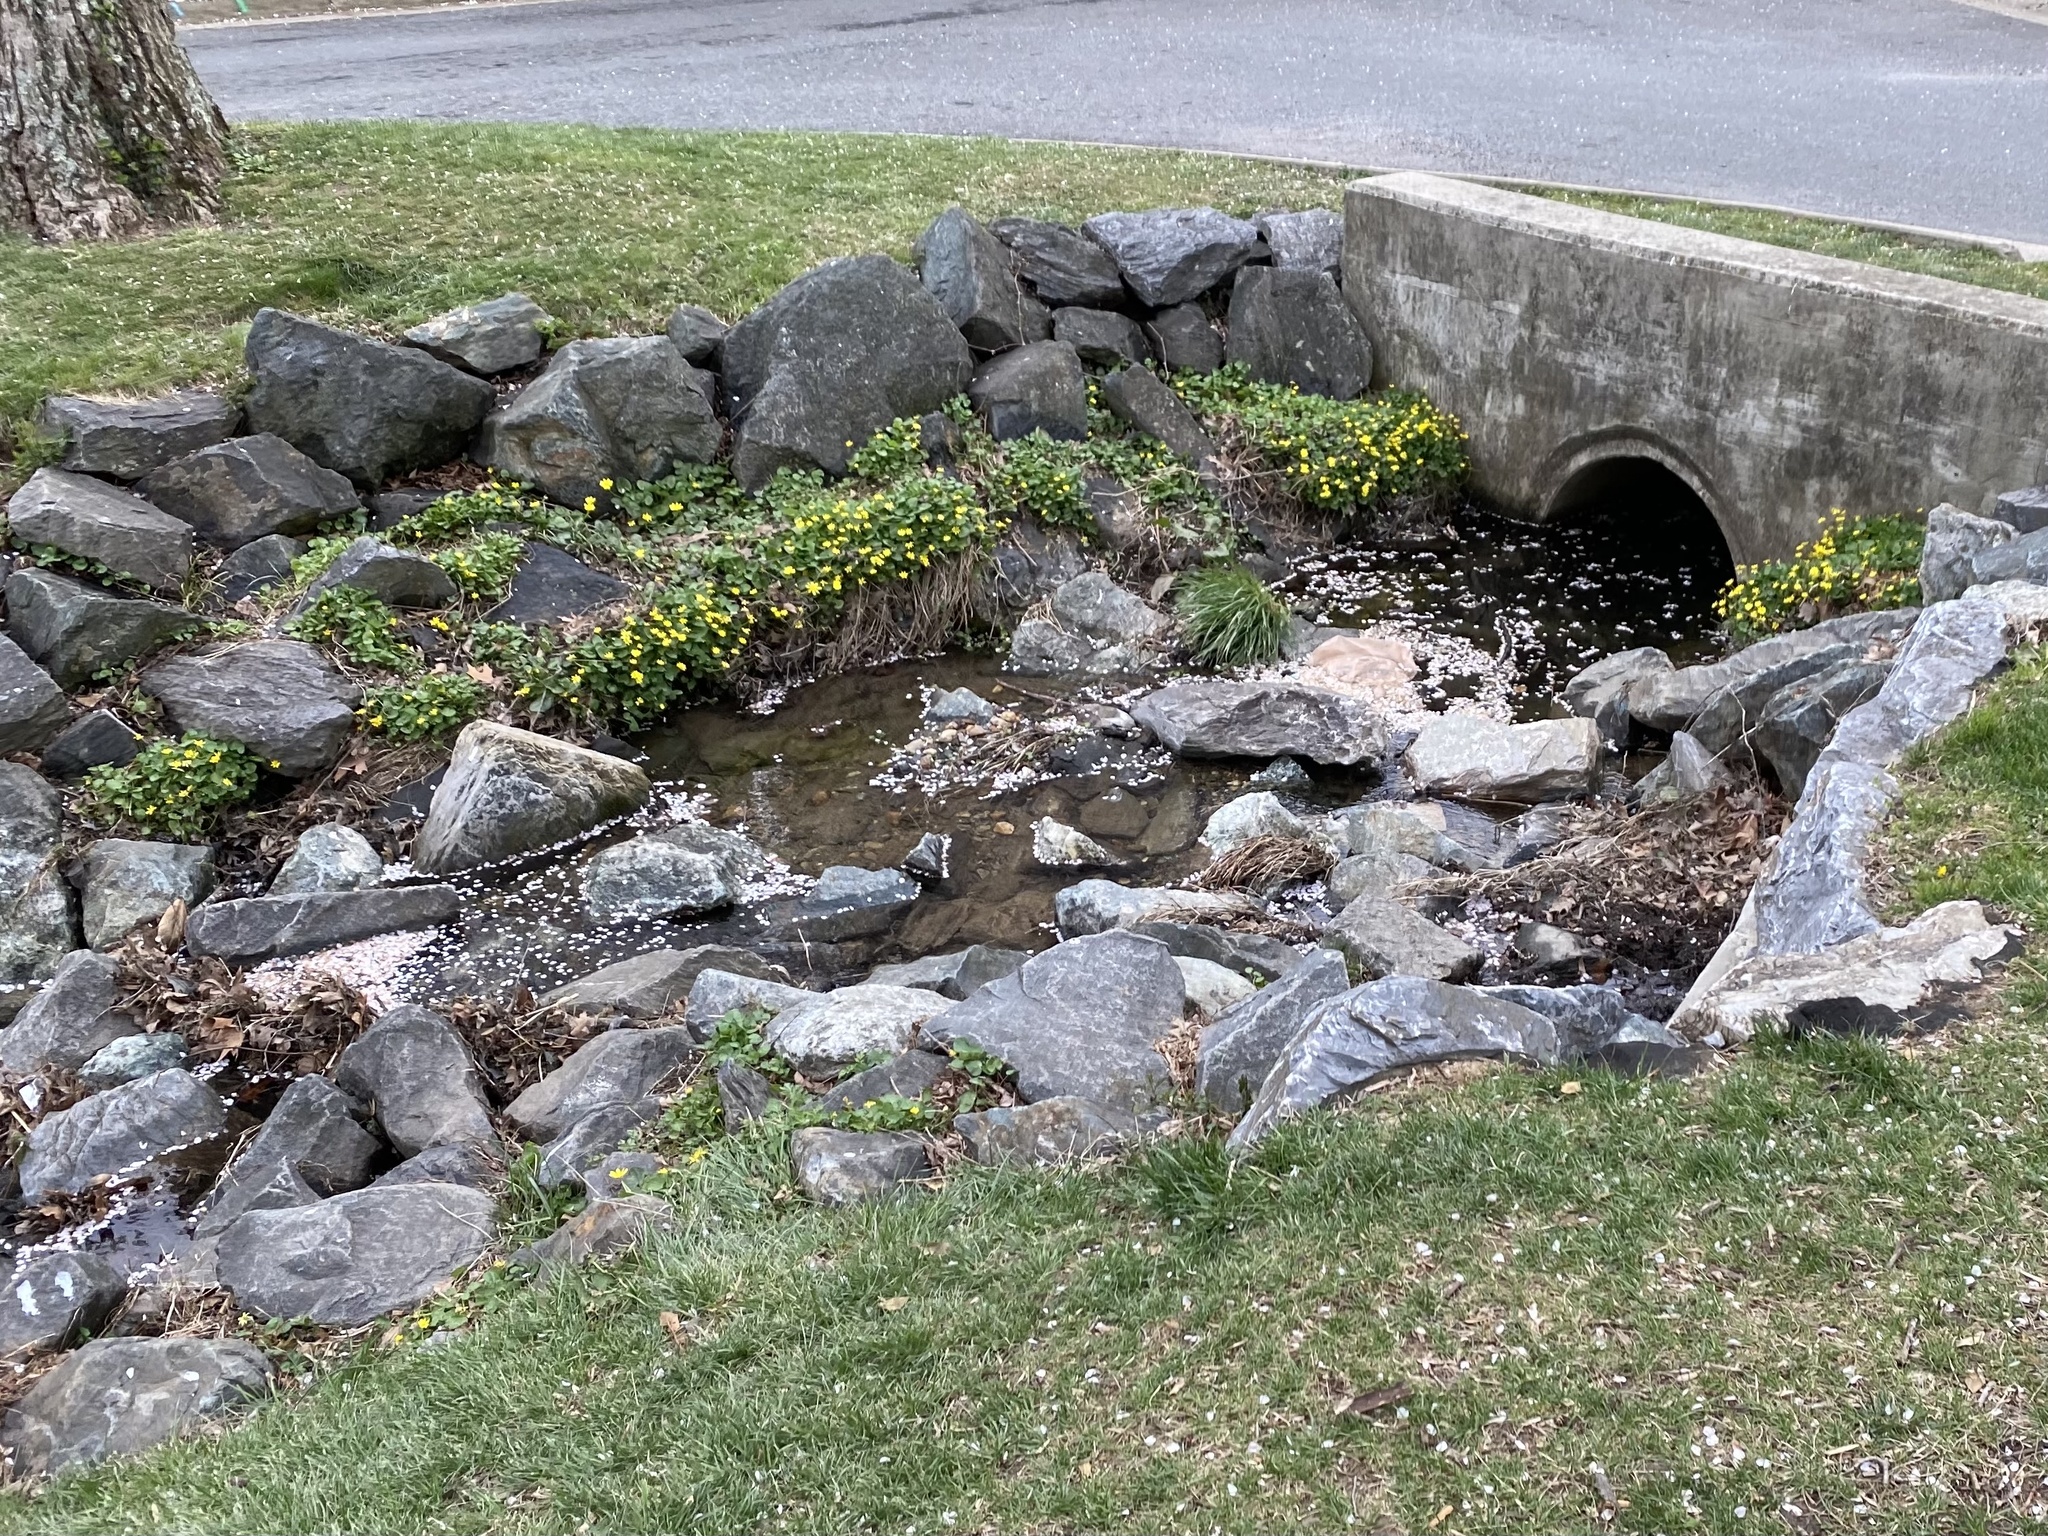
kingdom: Plantae
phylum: Tracheophyta
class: Magnoliopsida
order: Ranunculales
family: Ranunculaceae
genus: Ficaria
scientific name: Ficaria verna
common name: Lesser celandine
